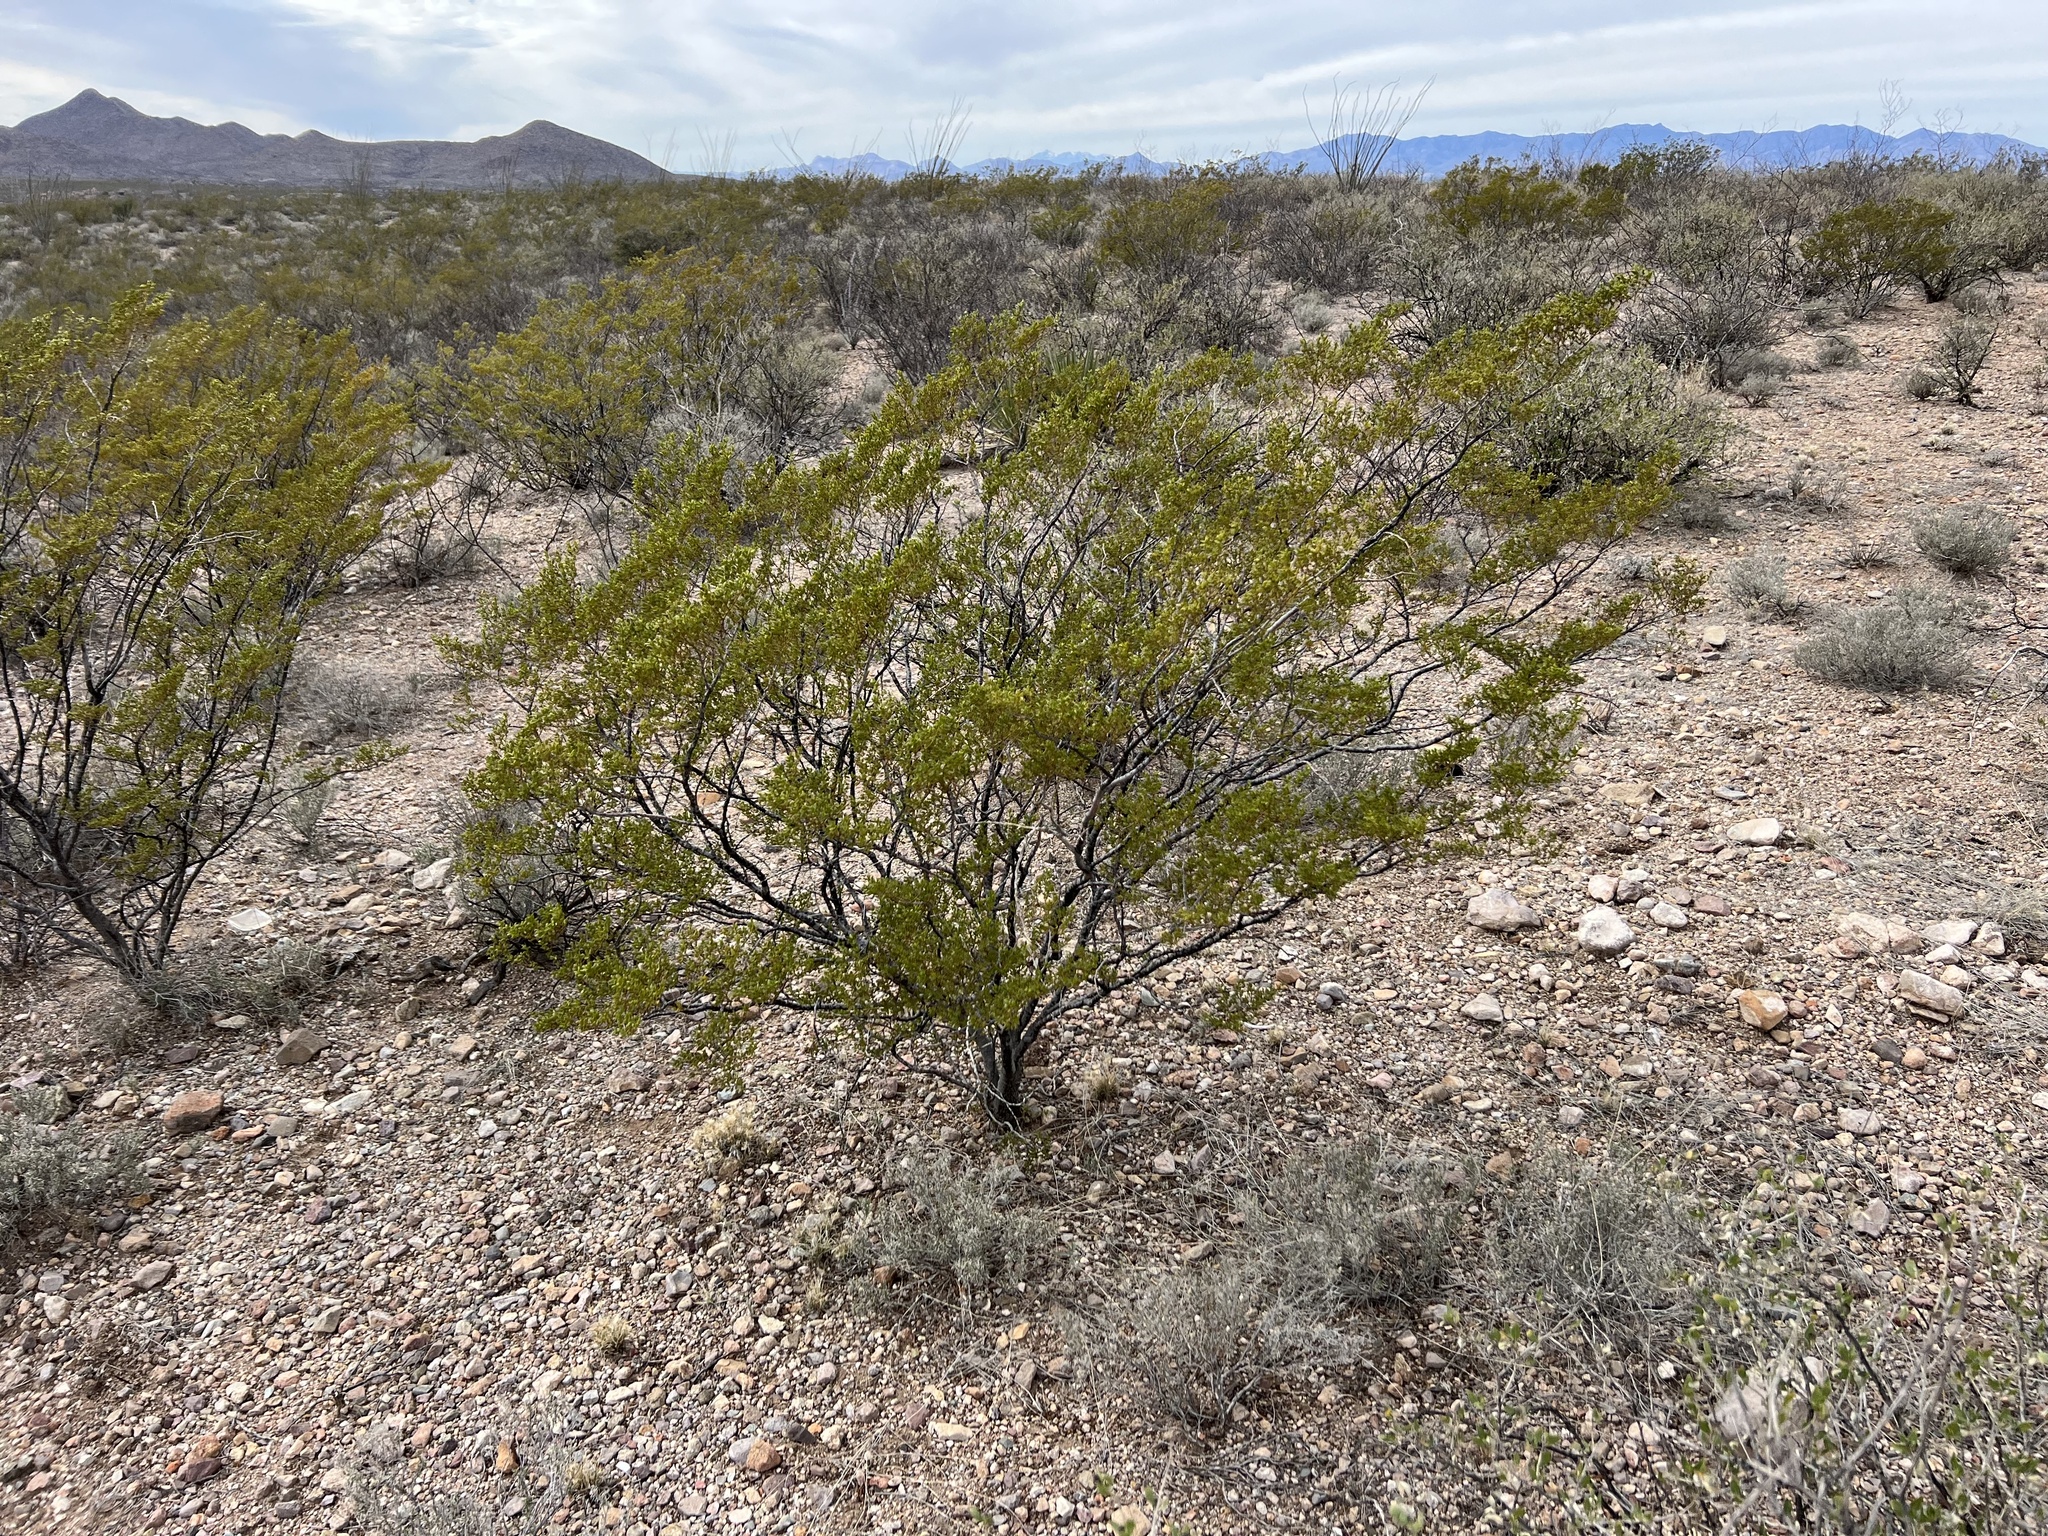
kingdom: Plantae
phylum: Tracheophyta
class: Magnoliopsida
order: Zygophyllales
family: Zygophyllaceae
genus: Larrea
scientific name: Larrea tridentata
